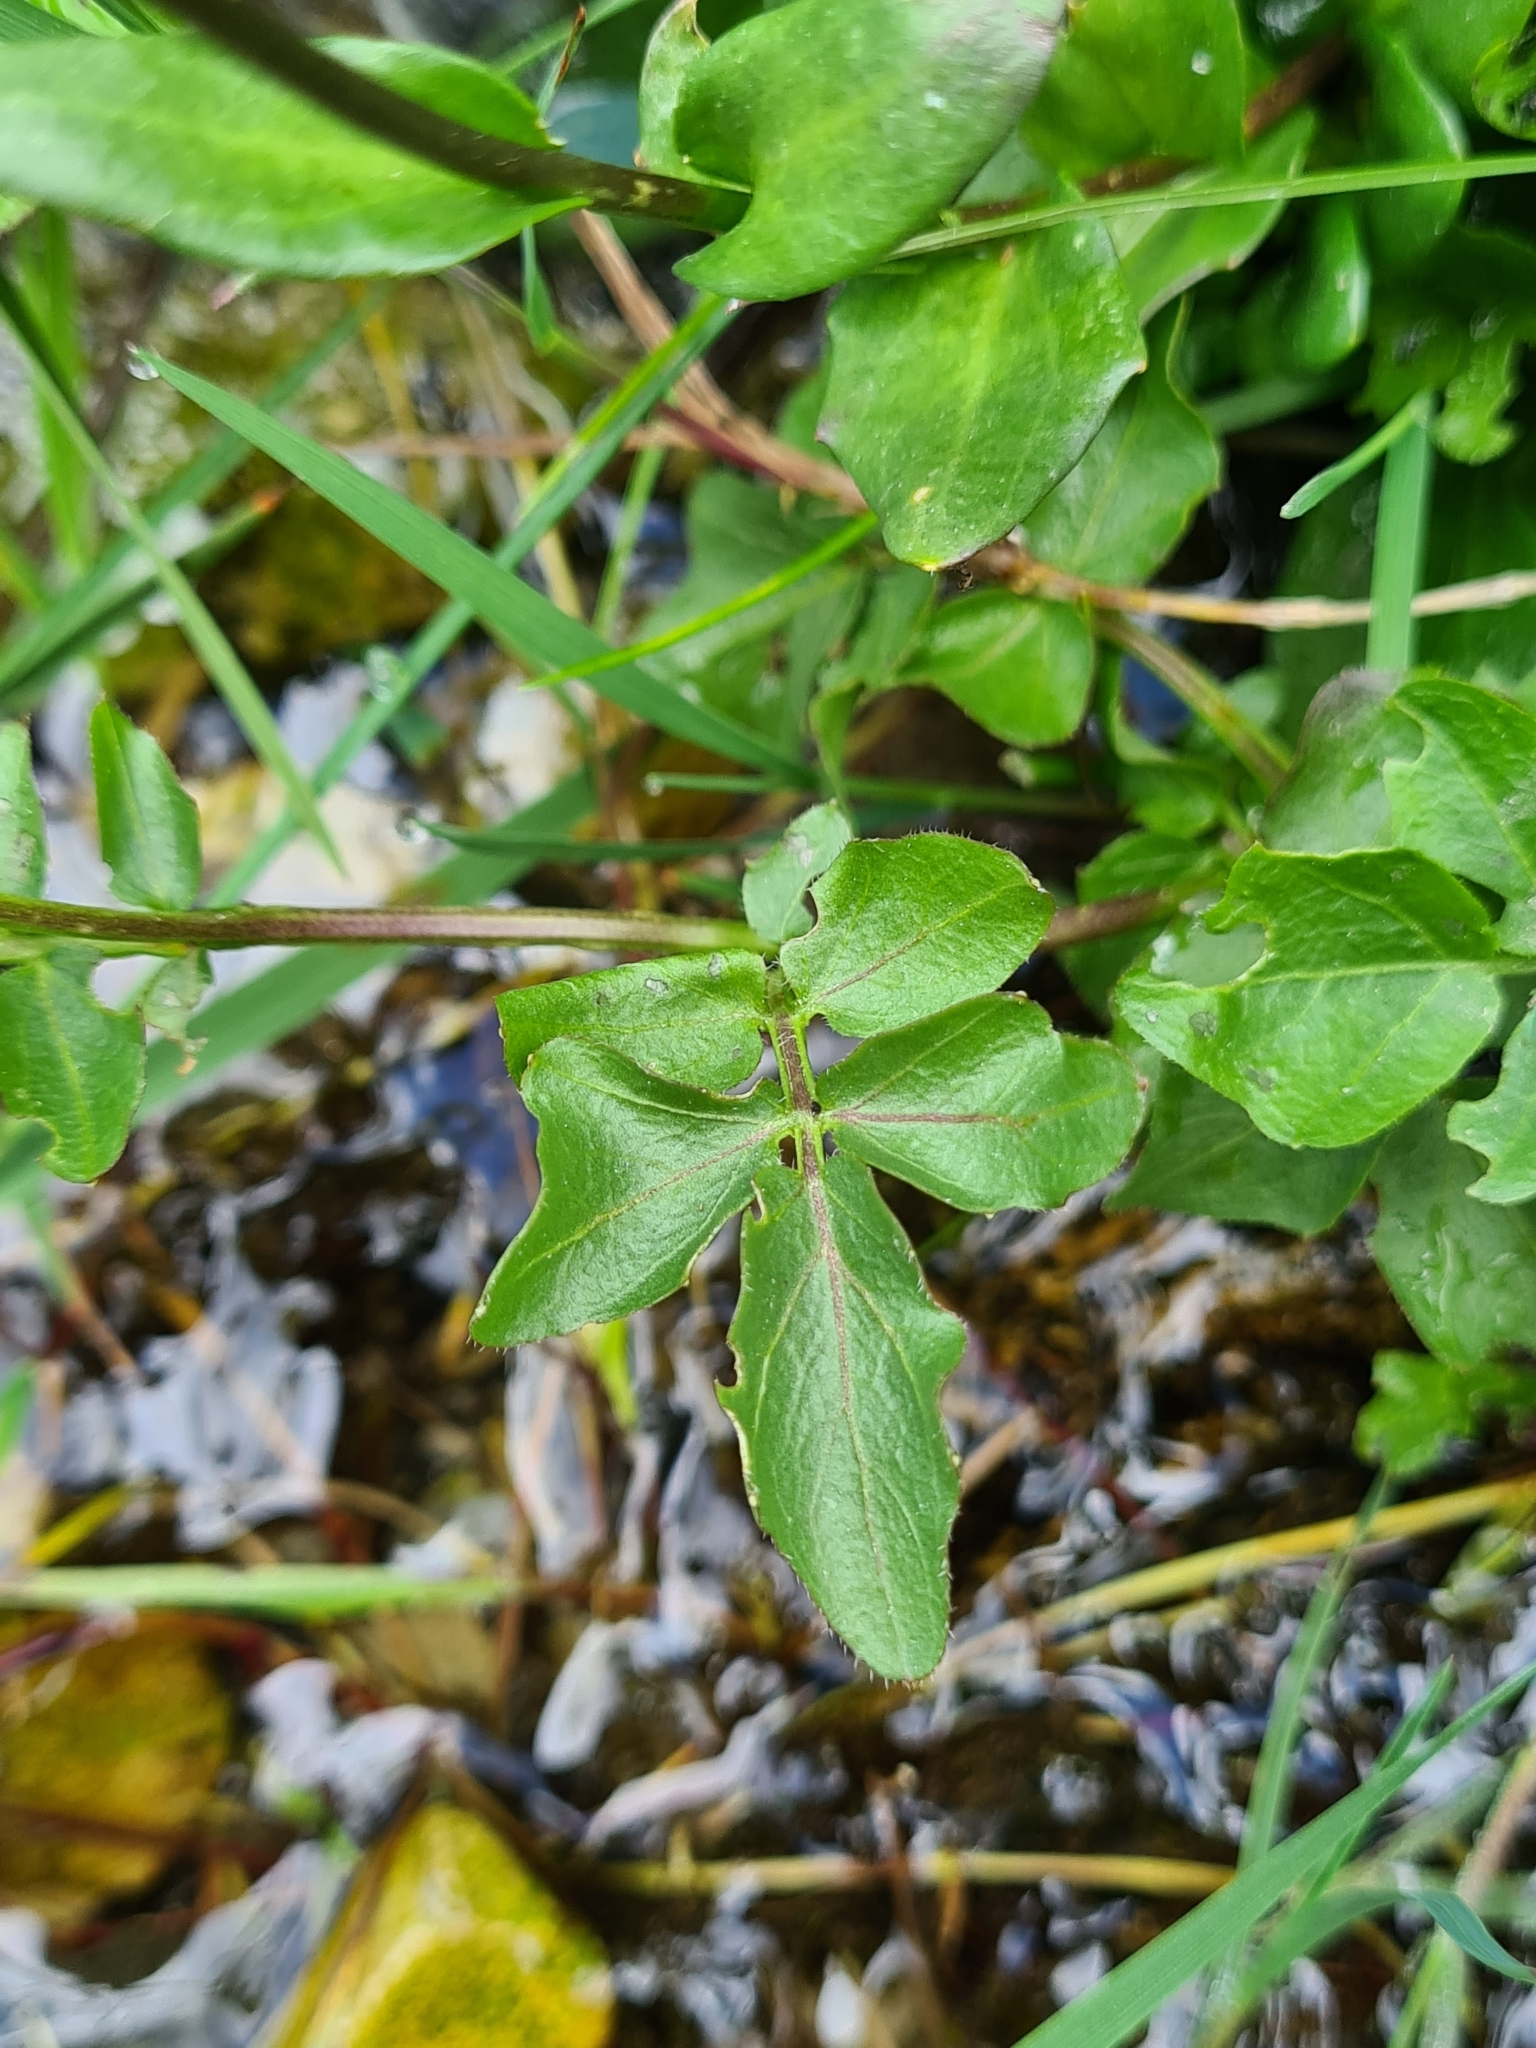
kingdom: Plantae
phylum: Tracheophyta
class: Magnoliopsida
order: Brassicales
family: Brassicaceae
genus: Cardamine
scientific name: Cardamine amara
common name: Large bitter-cress
